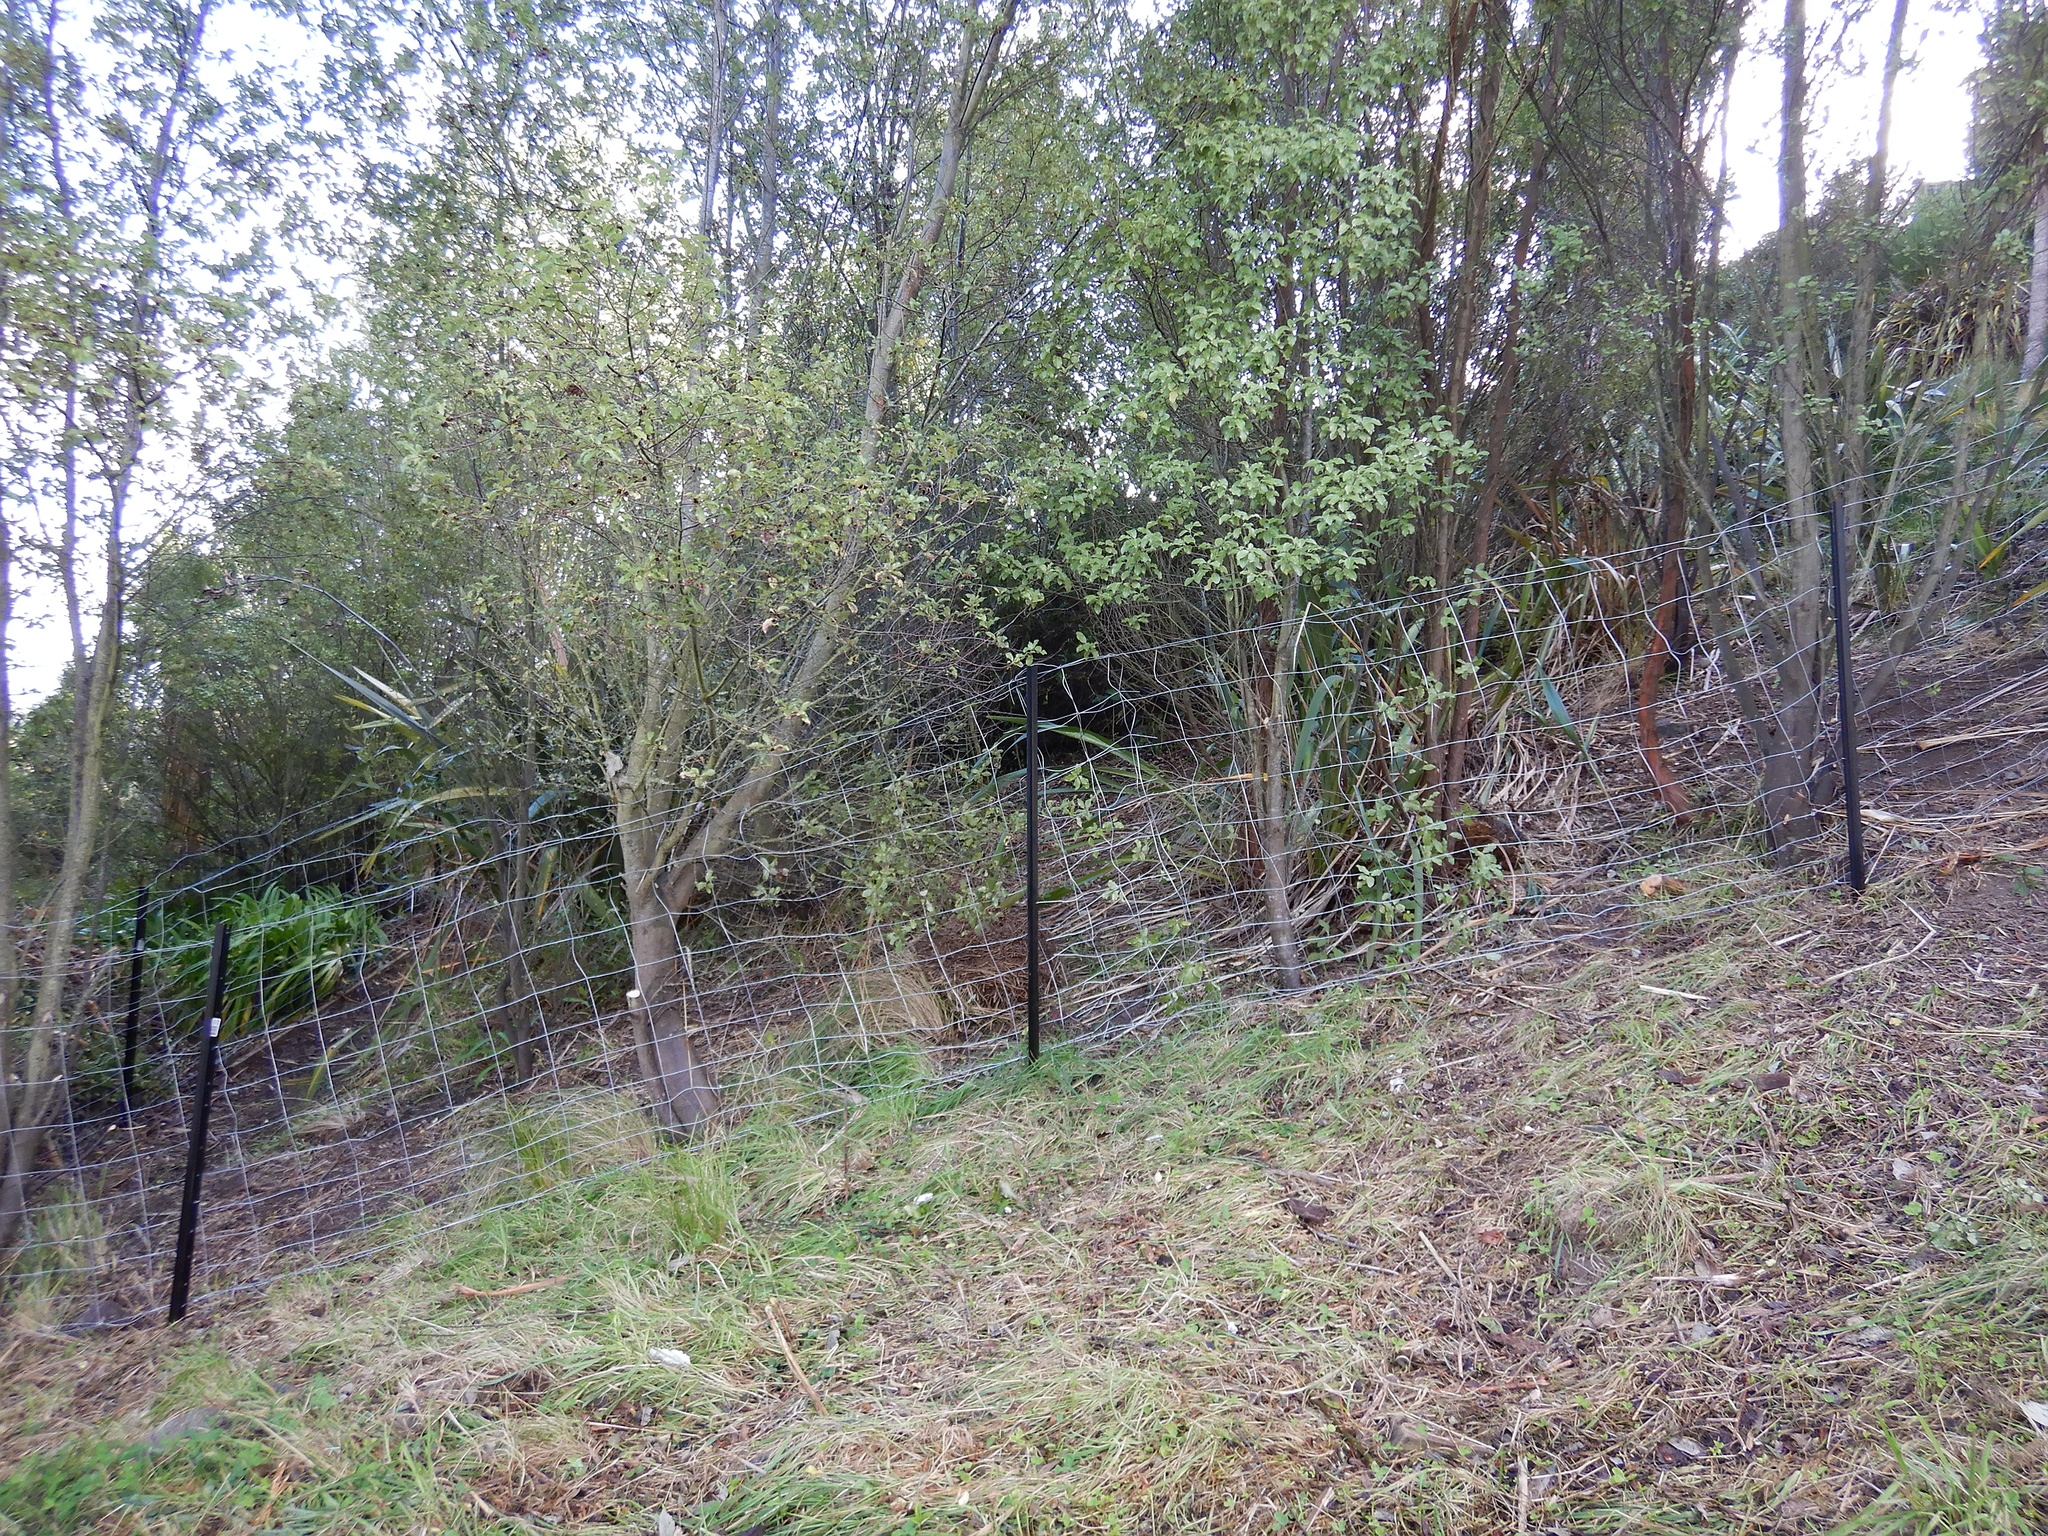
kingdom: Plantae
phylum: Tracheophyta
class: Magnoliopsida
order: Apiales
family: Pittosporaceae
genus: Pittosporum
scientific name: Pittosporum tenuifolium
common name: Kohuhu
